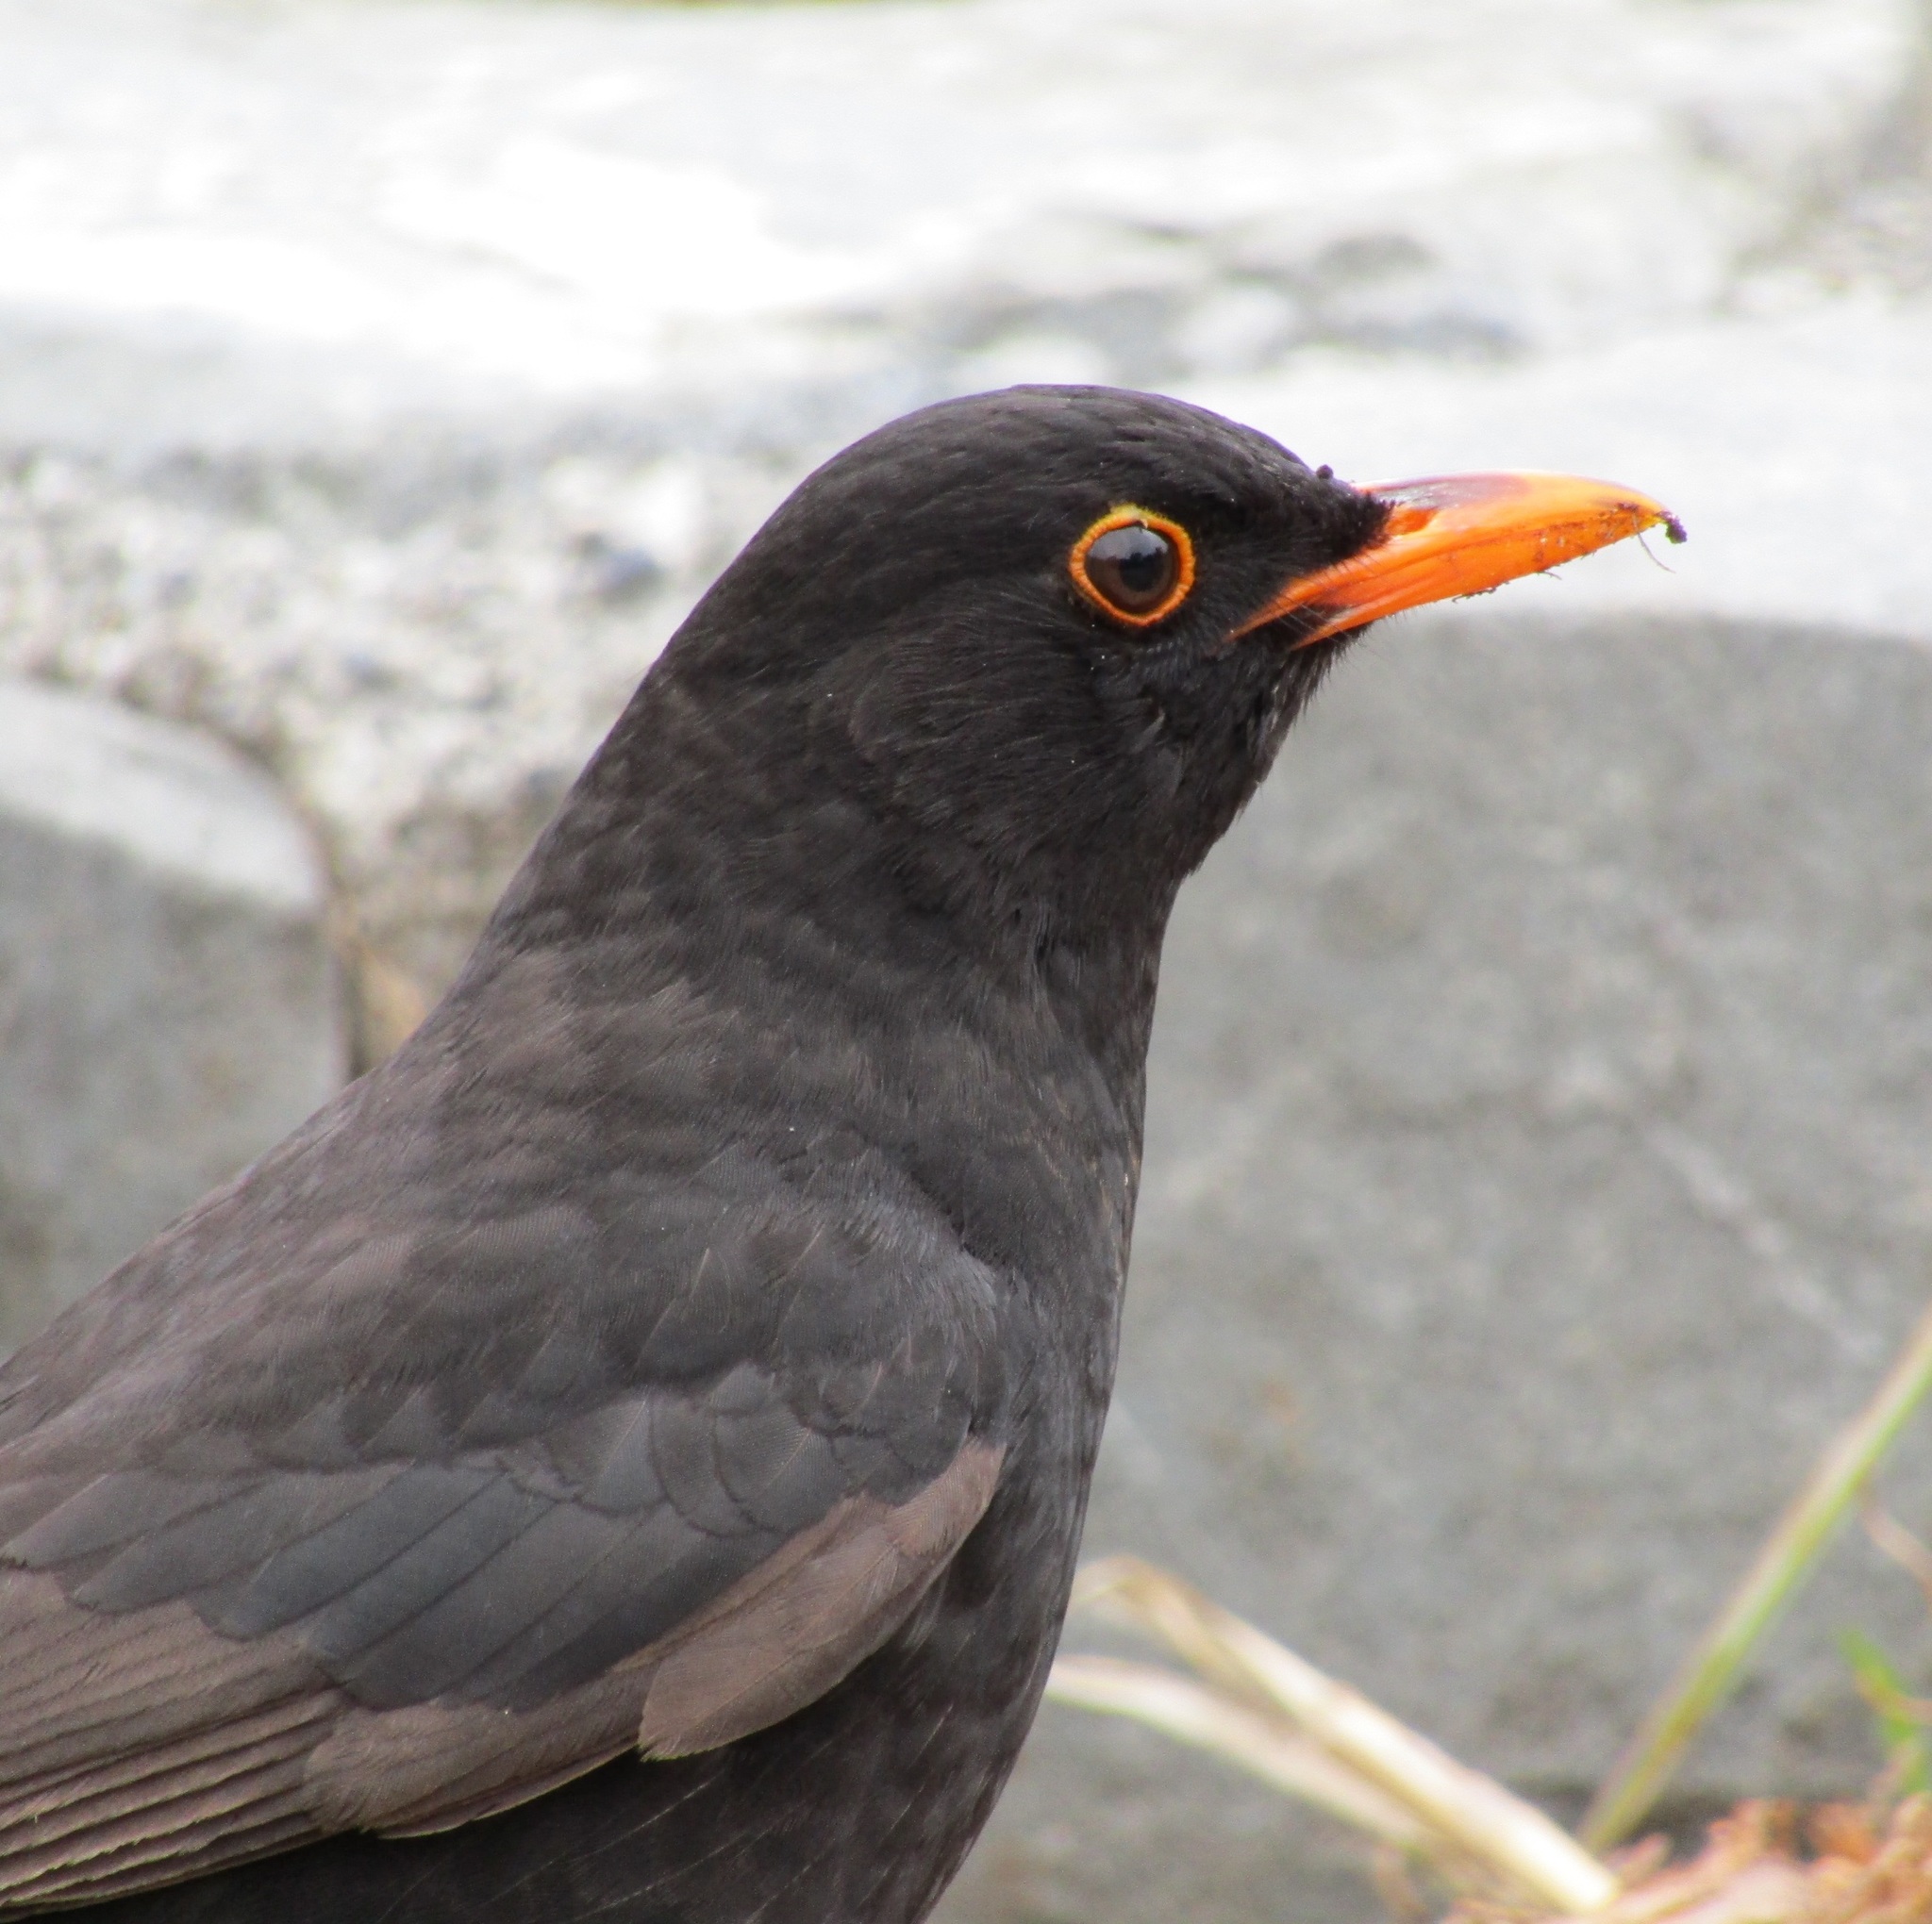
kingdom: Animalia
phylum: Chordata
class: Aves
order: Passeriformes
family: Turdidae
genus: Turdus
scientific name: Turdus merula
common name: Common blackbird
